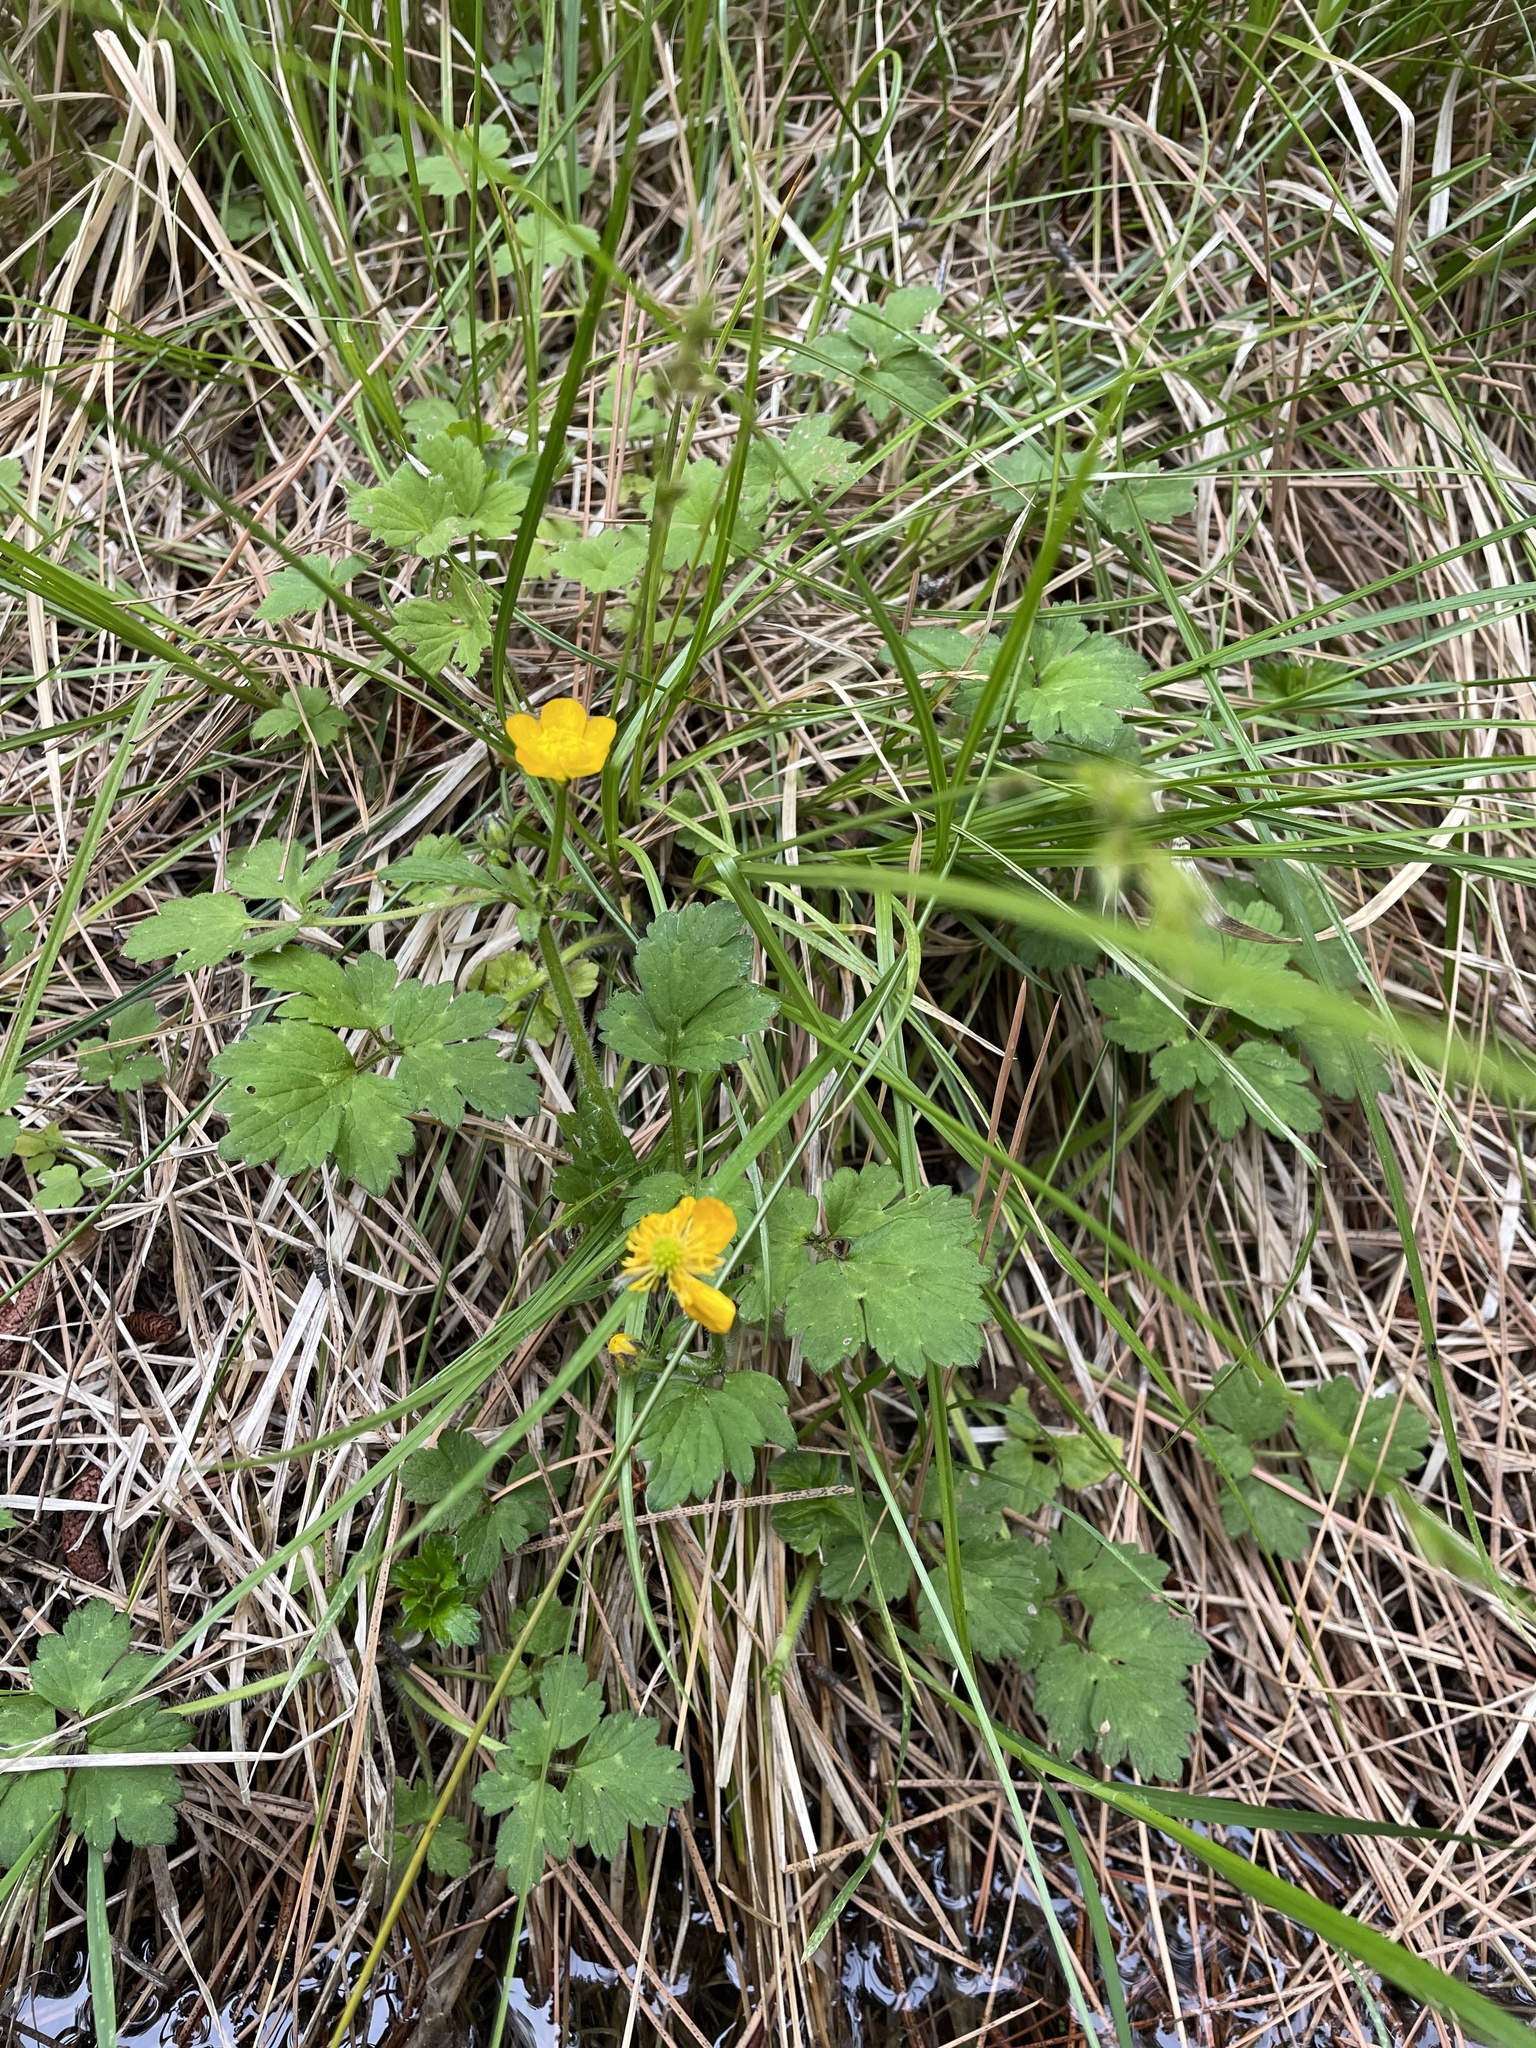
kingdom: Plantae
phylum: Tracheophyta
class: Magnoliopsida
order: Ranunculales
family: Ranunculaceae
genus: Ranunculus
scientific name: Ranunculus repens
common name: Creeping buttercup
